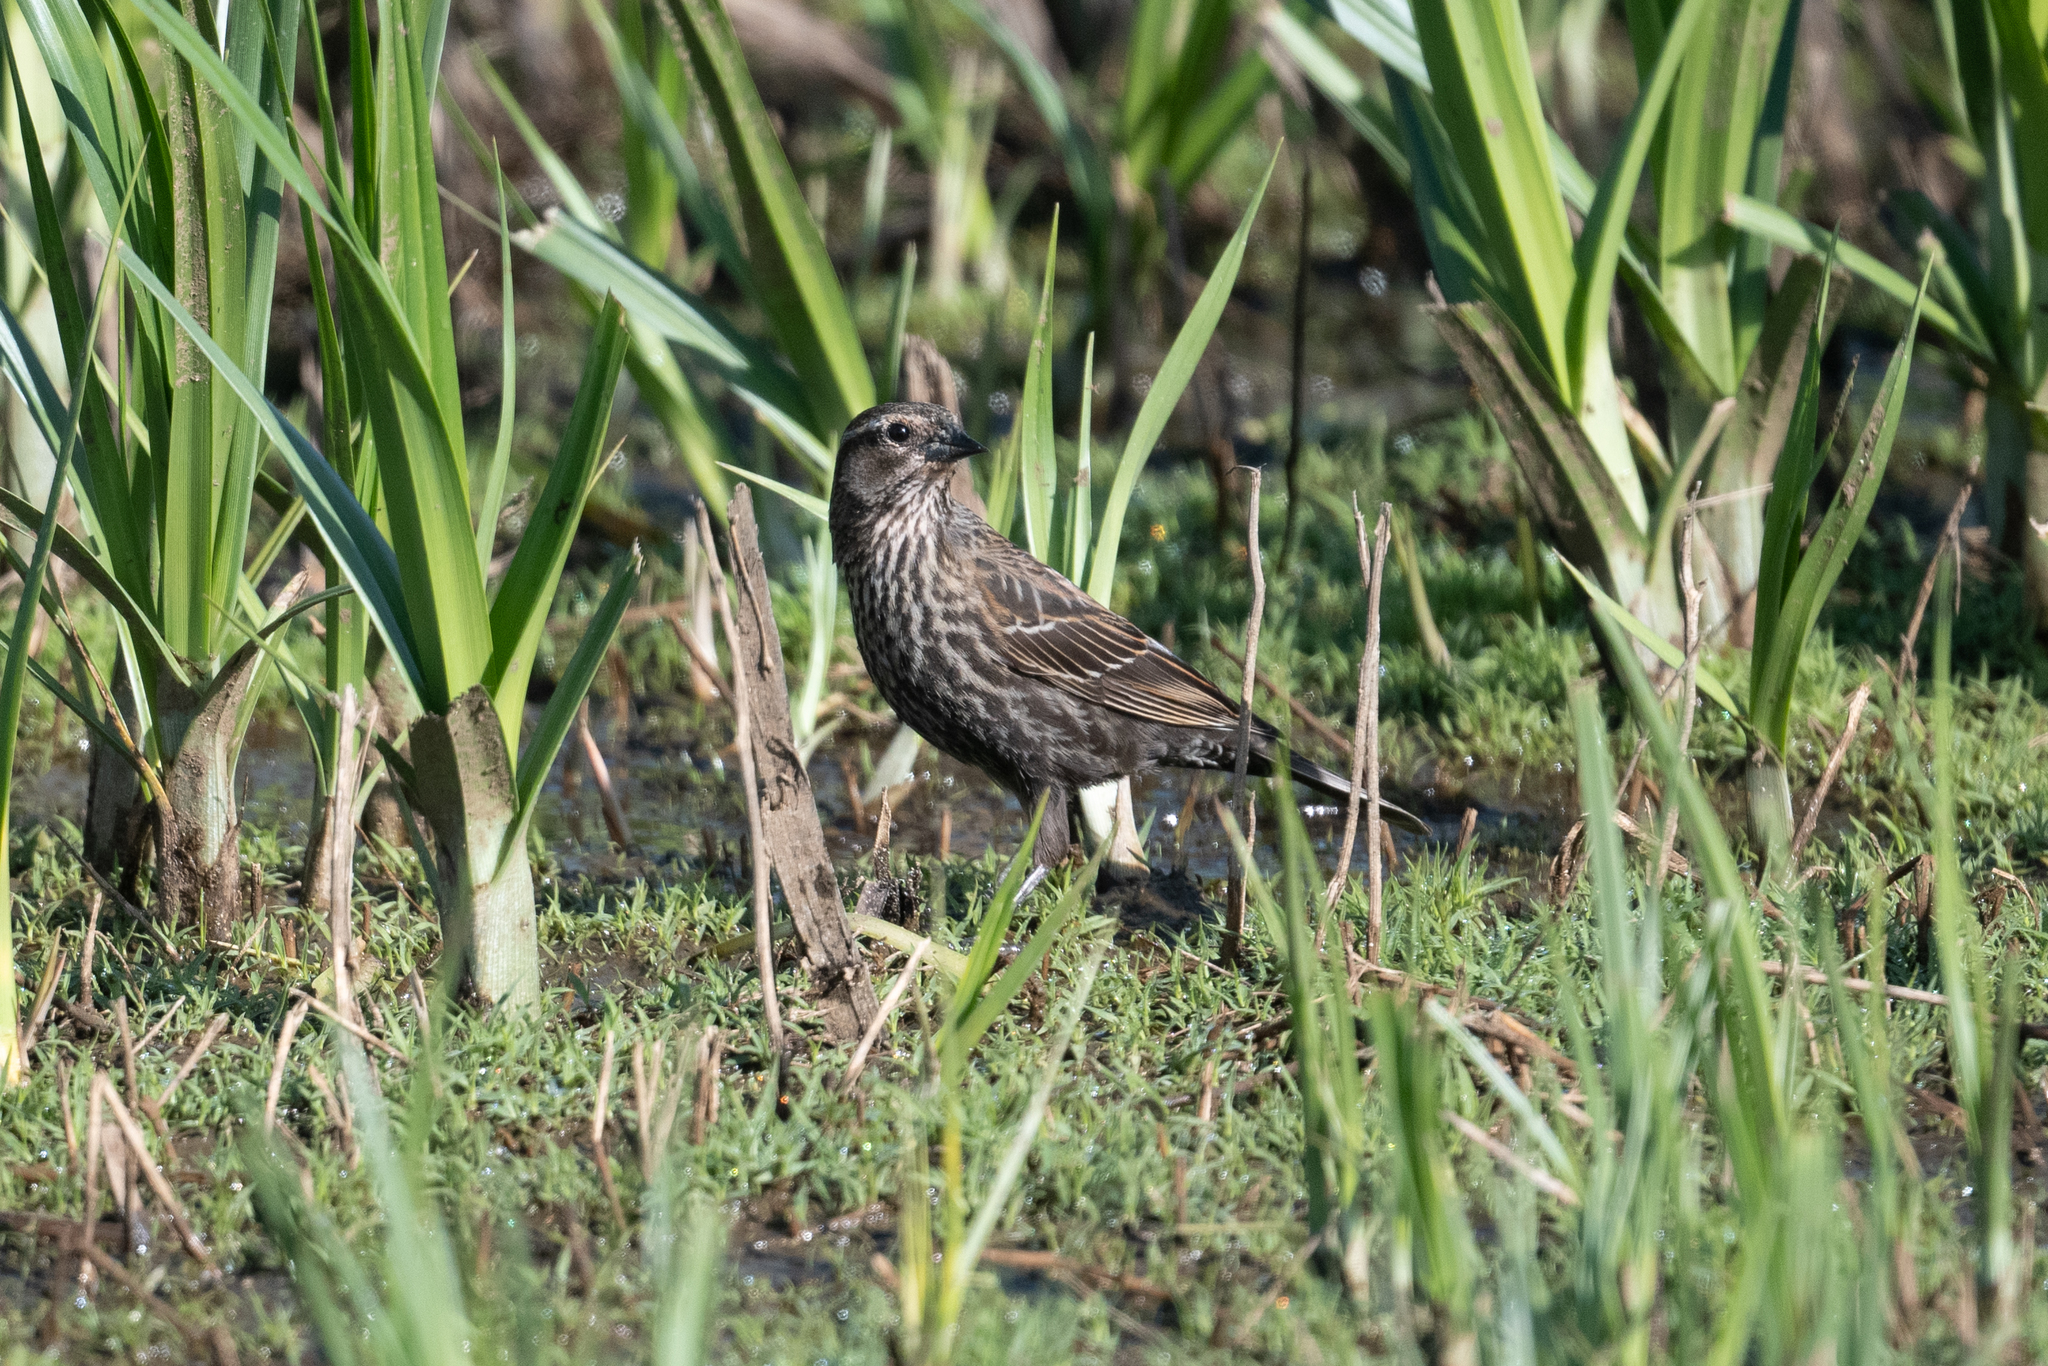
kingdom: Animalia
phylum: Chordata
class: Aves
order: Passeriformes
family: Icteridae
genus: Agelaius
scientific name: Agelaius phoeniceus
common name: Red-winged blackbird
